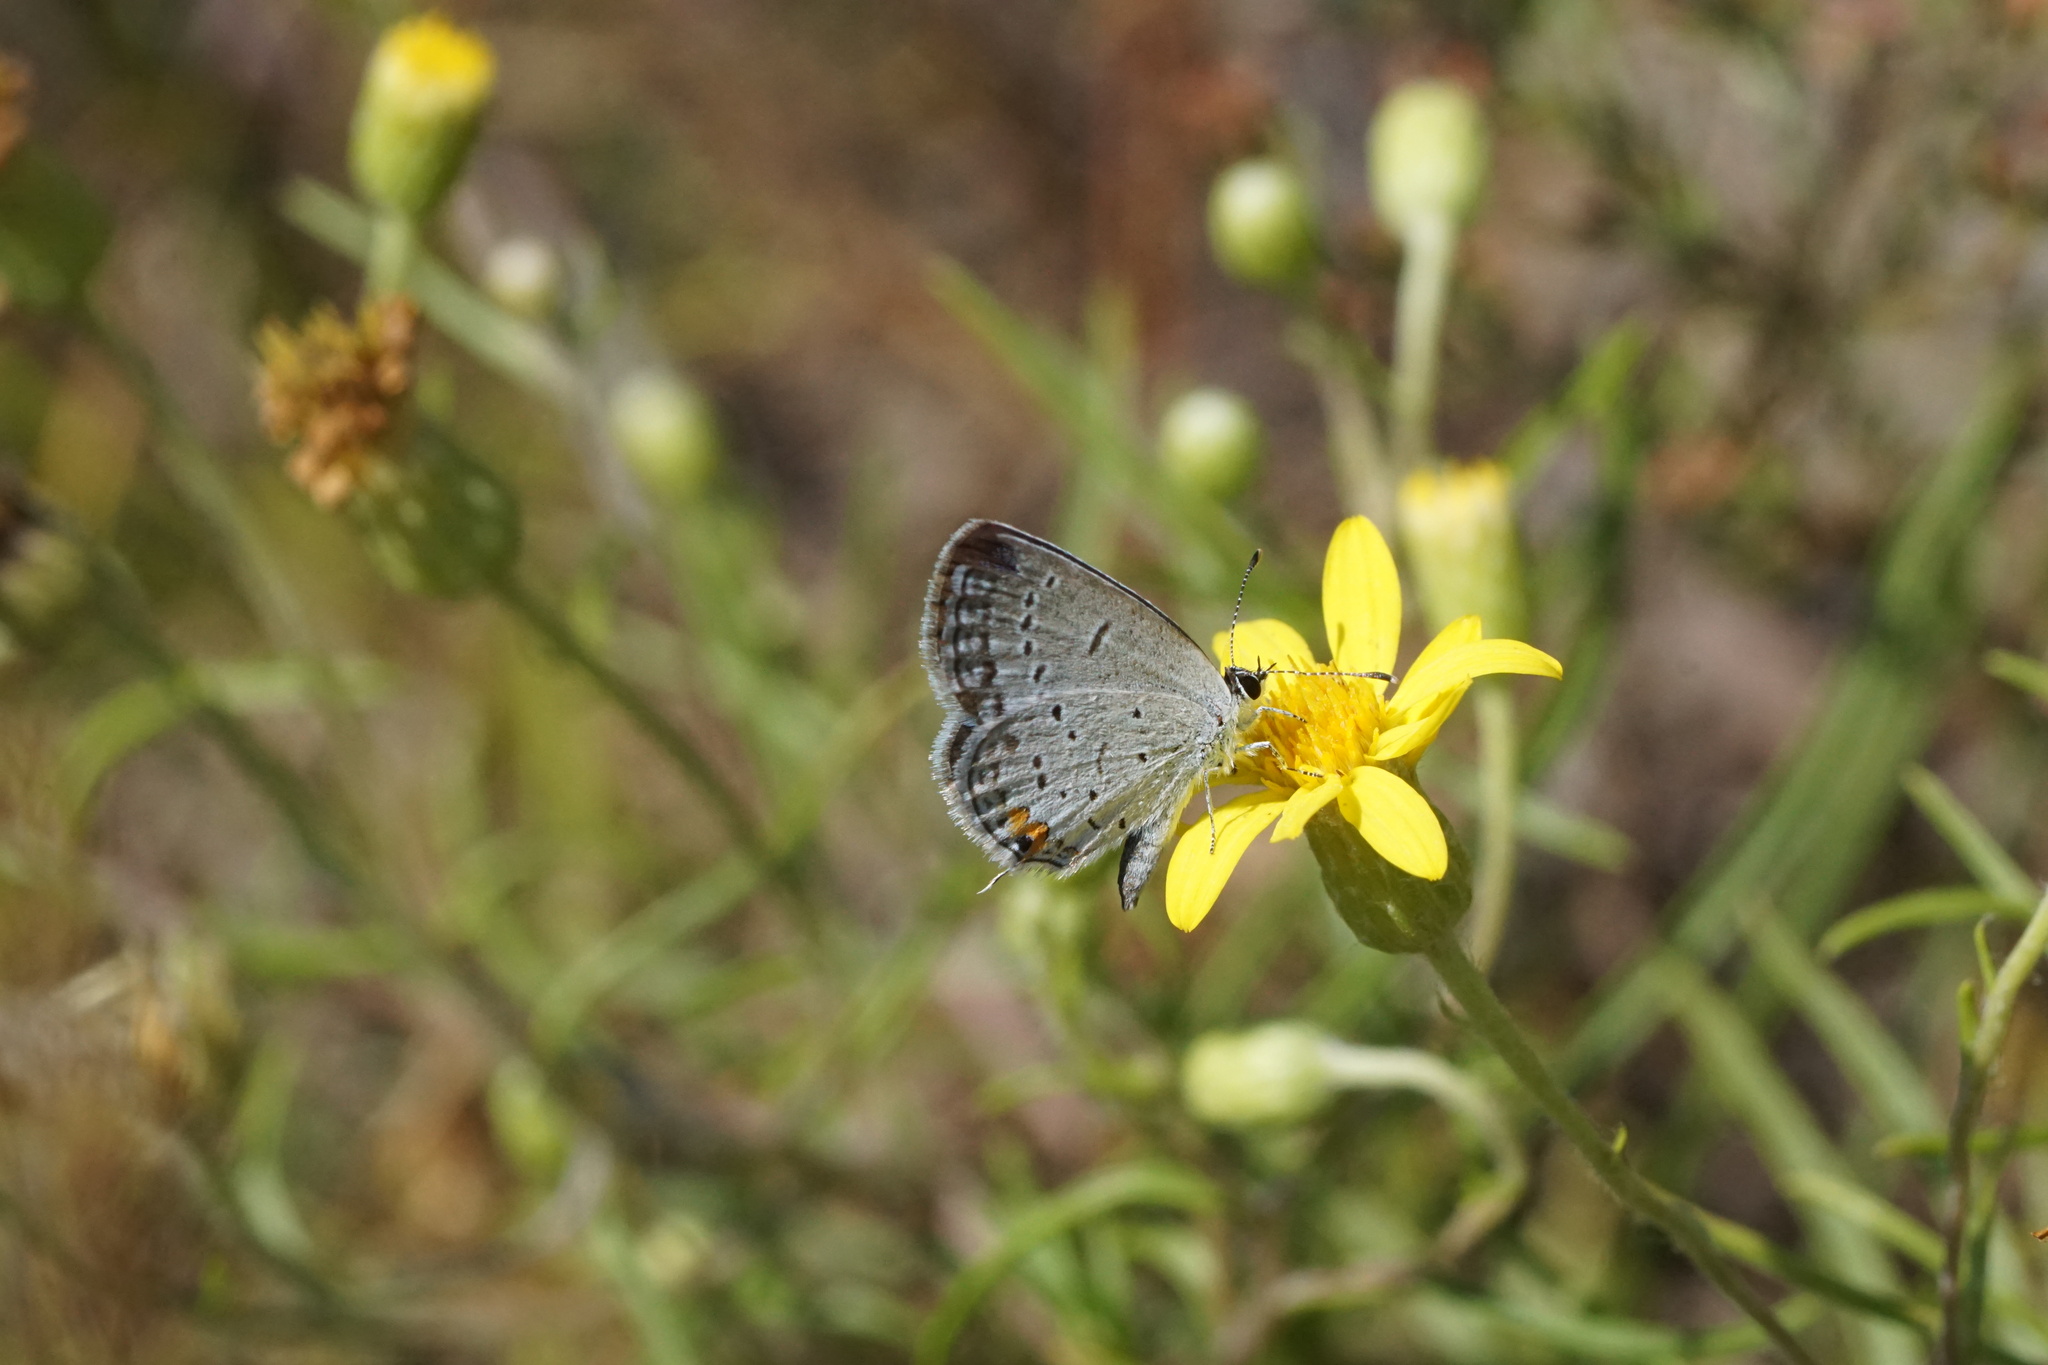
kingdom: Animalia
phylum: Arthropoda
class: Insecta
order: Lepidoptera
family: Lycaenidae
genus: Elkalyce
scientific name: Elkalyce comyntas
